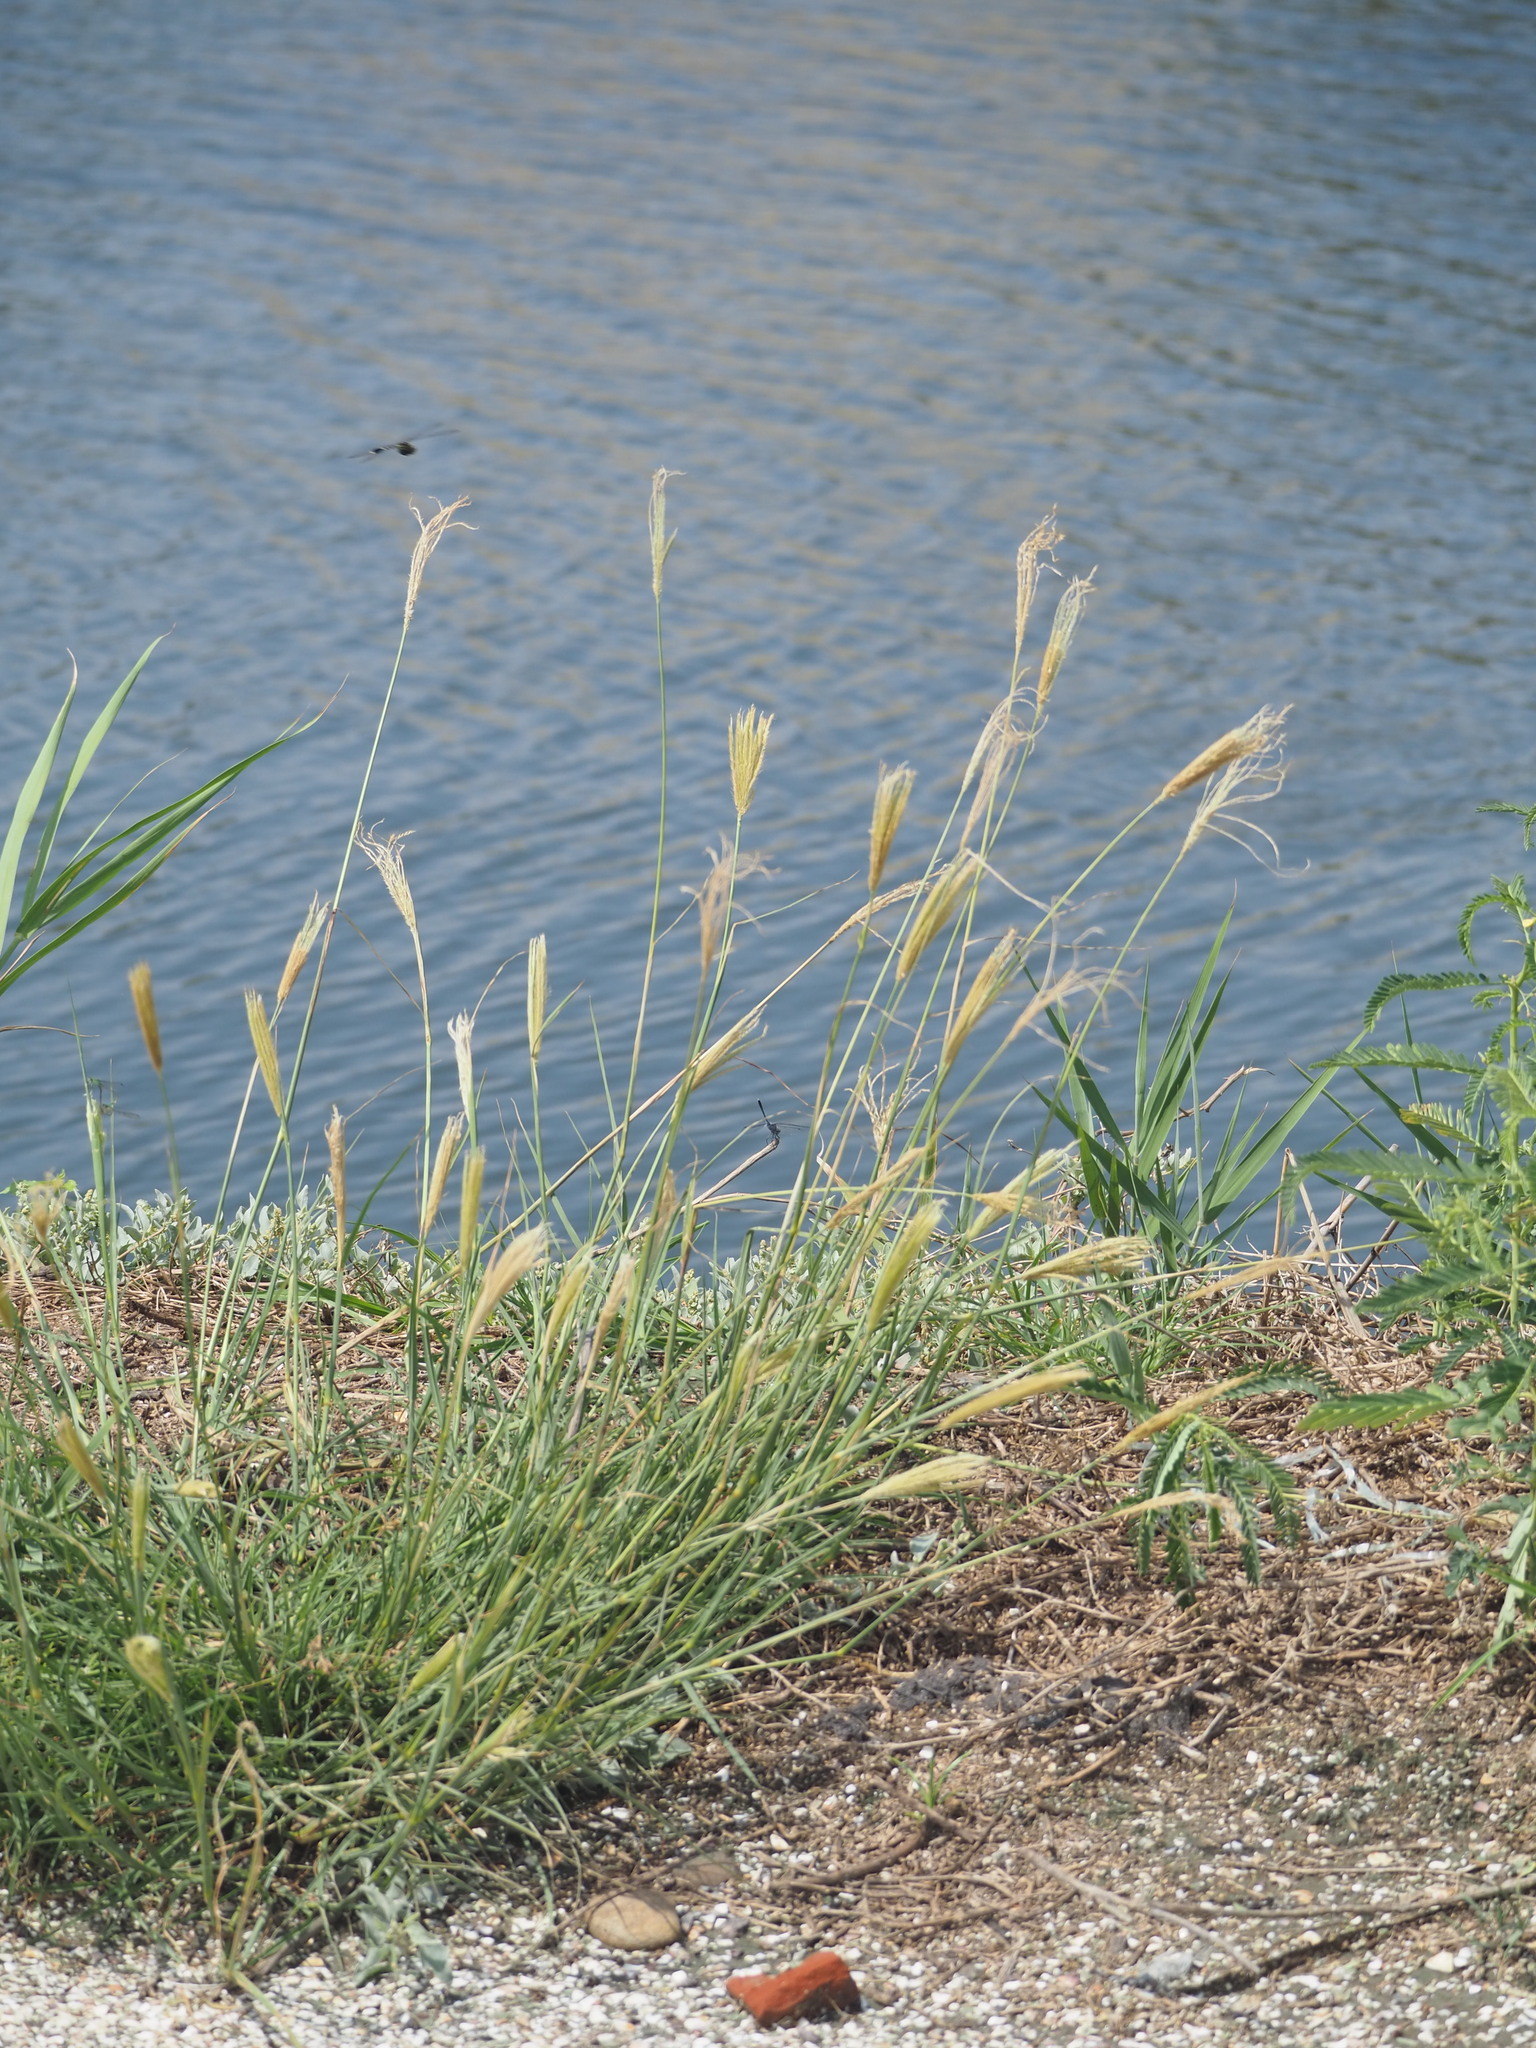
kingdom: Plantae
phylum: Tracheophyta
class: Liliopsida
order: Poales
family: Poaceae
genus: Chloris
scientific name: Chloris formosana
